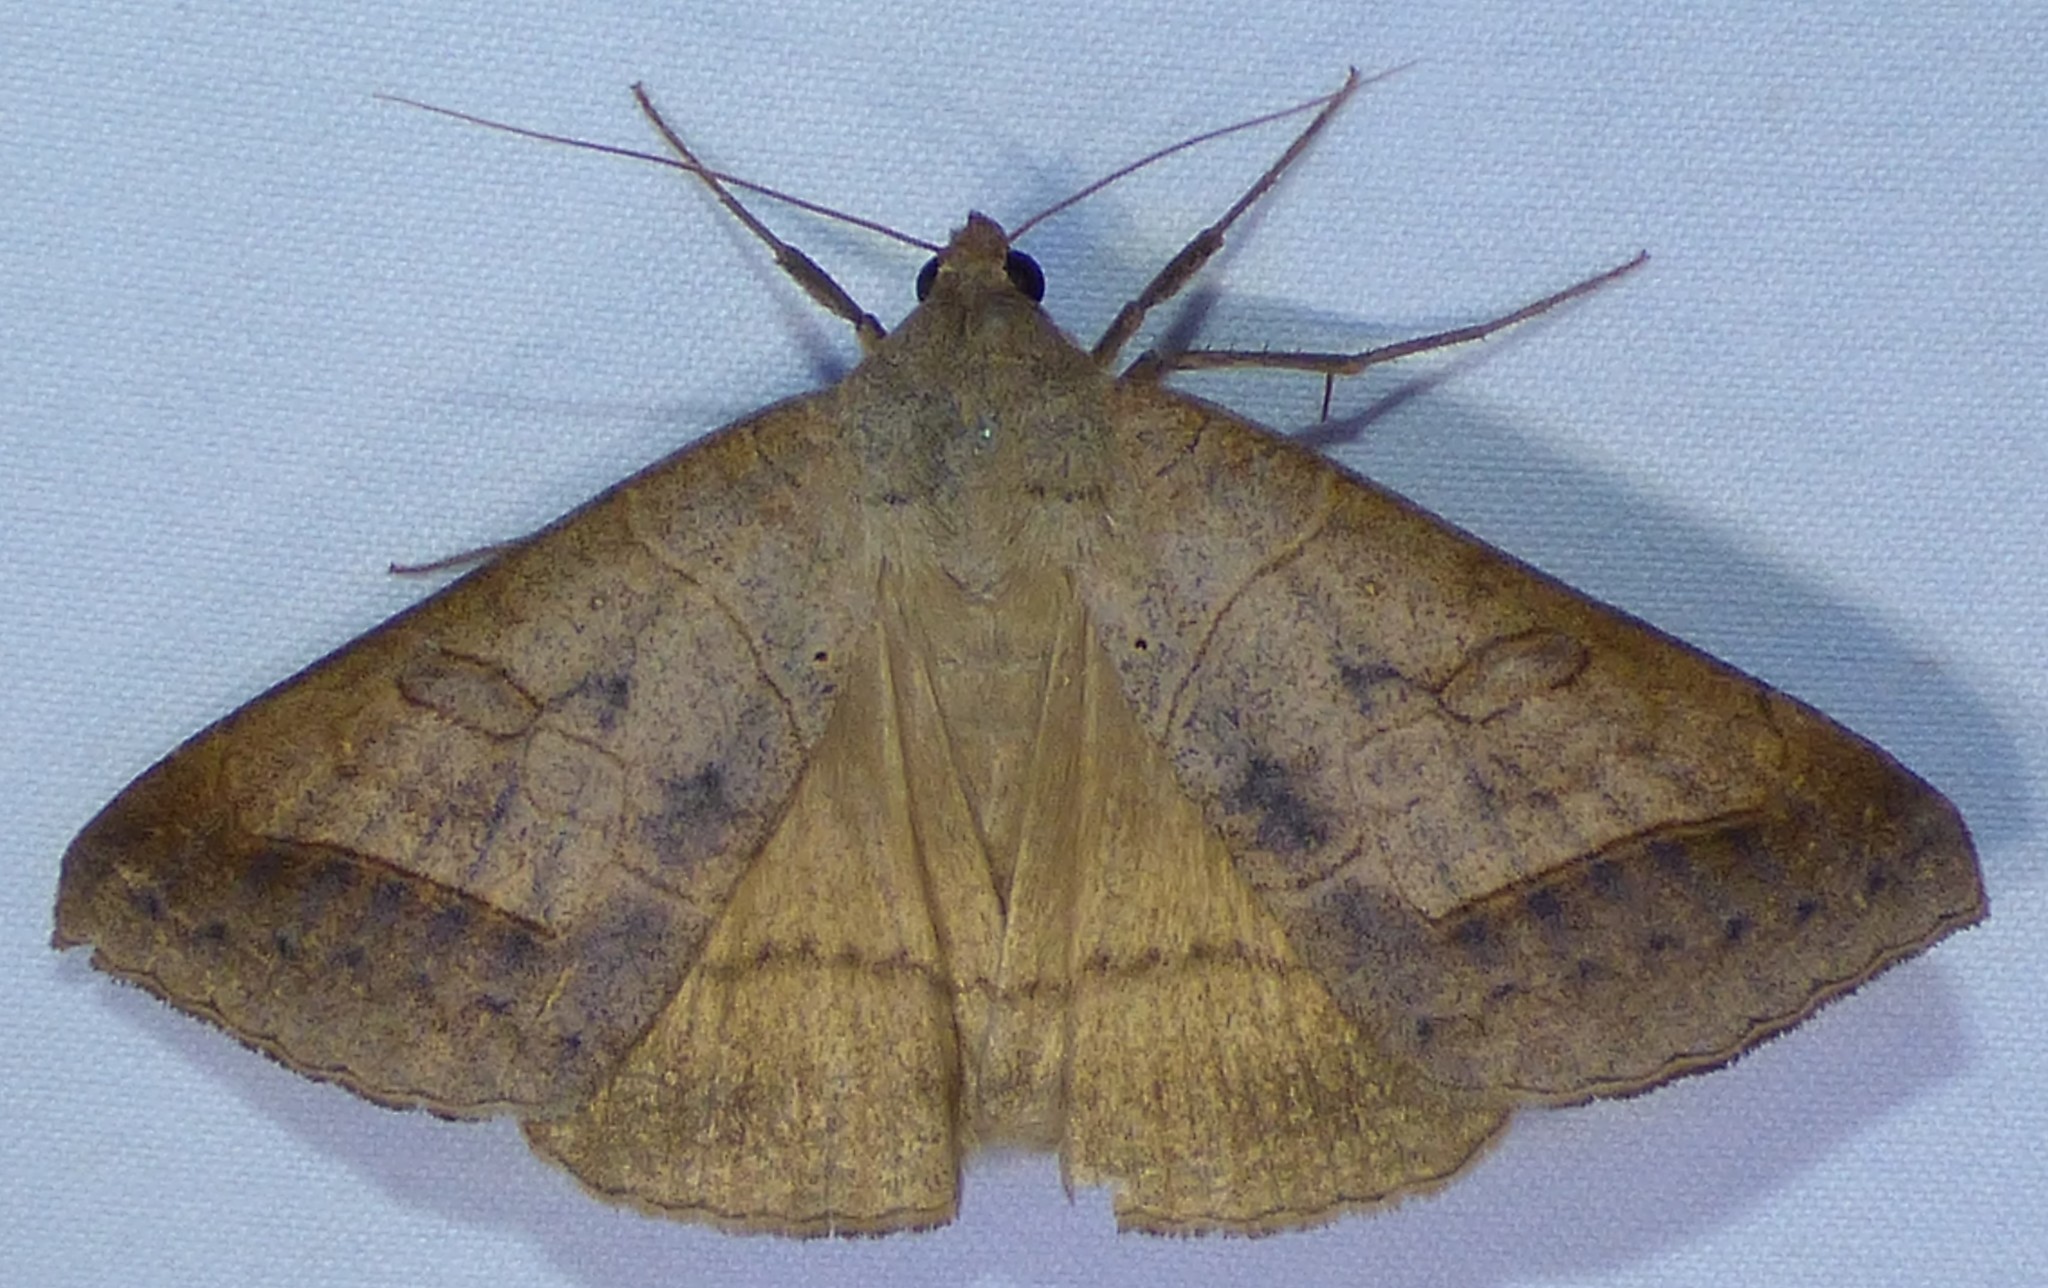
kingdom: Animalia
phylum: Arthropoda
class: Insecta
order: Lepidoptera
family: Erebidae
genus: Mocis
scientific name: Mocis marcida
